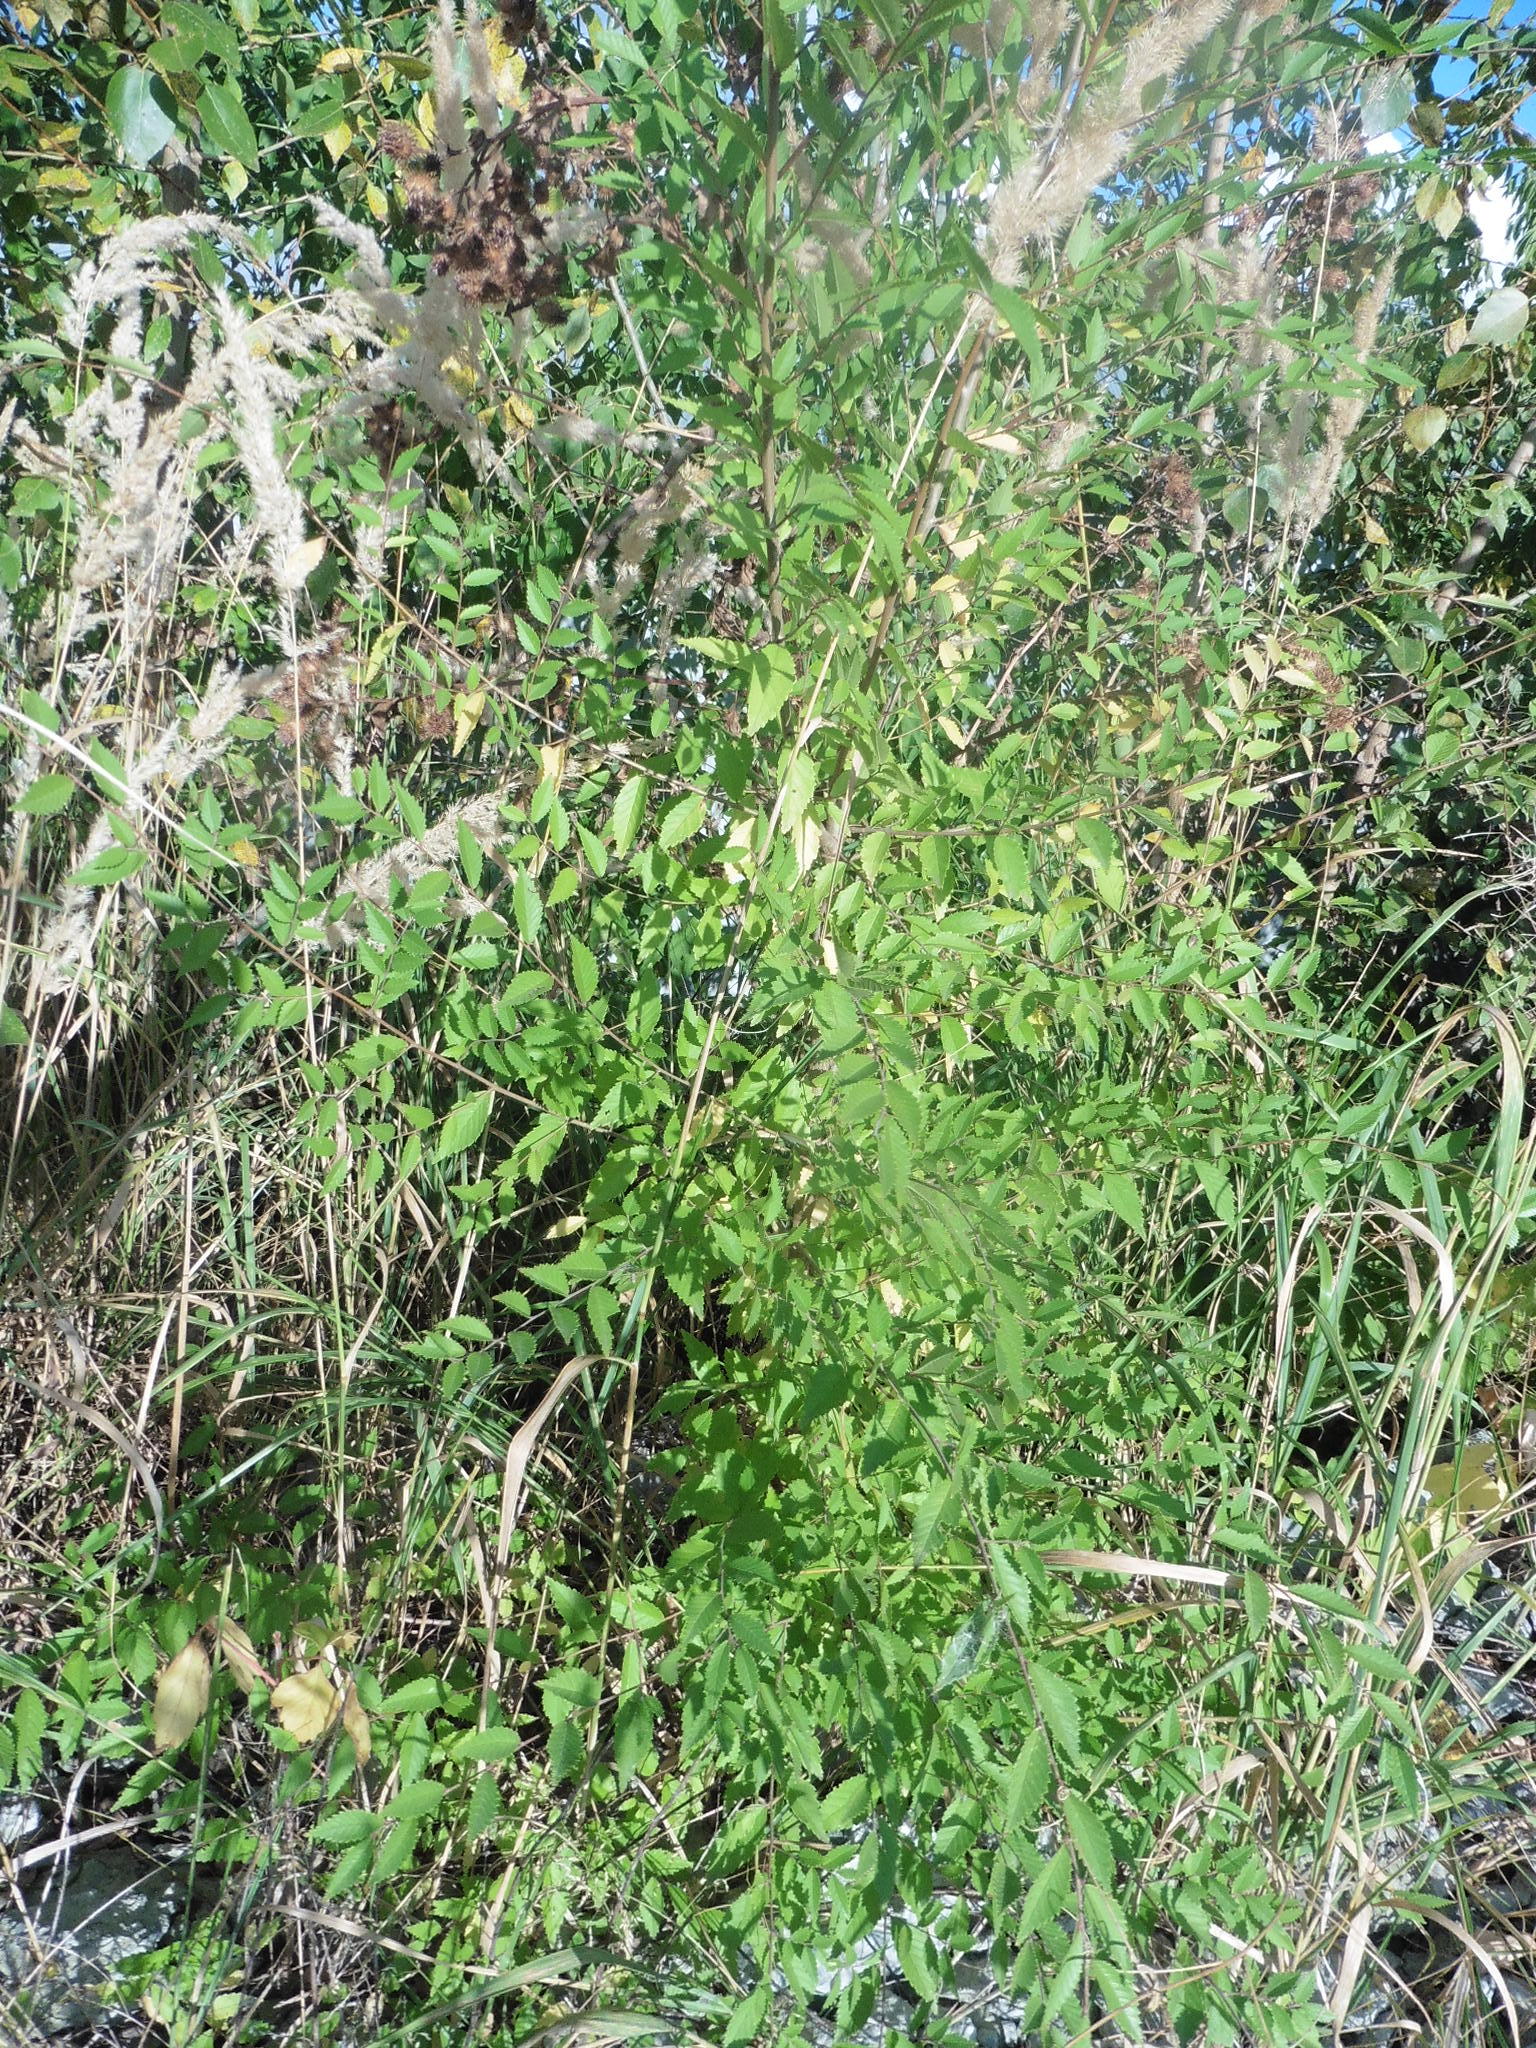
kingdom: Plantae
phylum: Tracheophyta
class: Magnoliopsida
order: Rosales
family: Ulmaceae
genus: Ulmus
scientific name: Ulmus pumila
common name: Siberian elm
